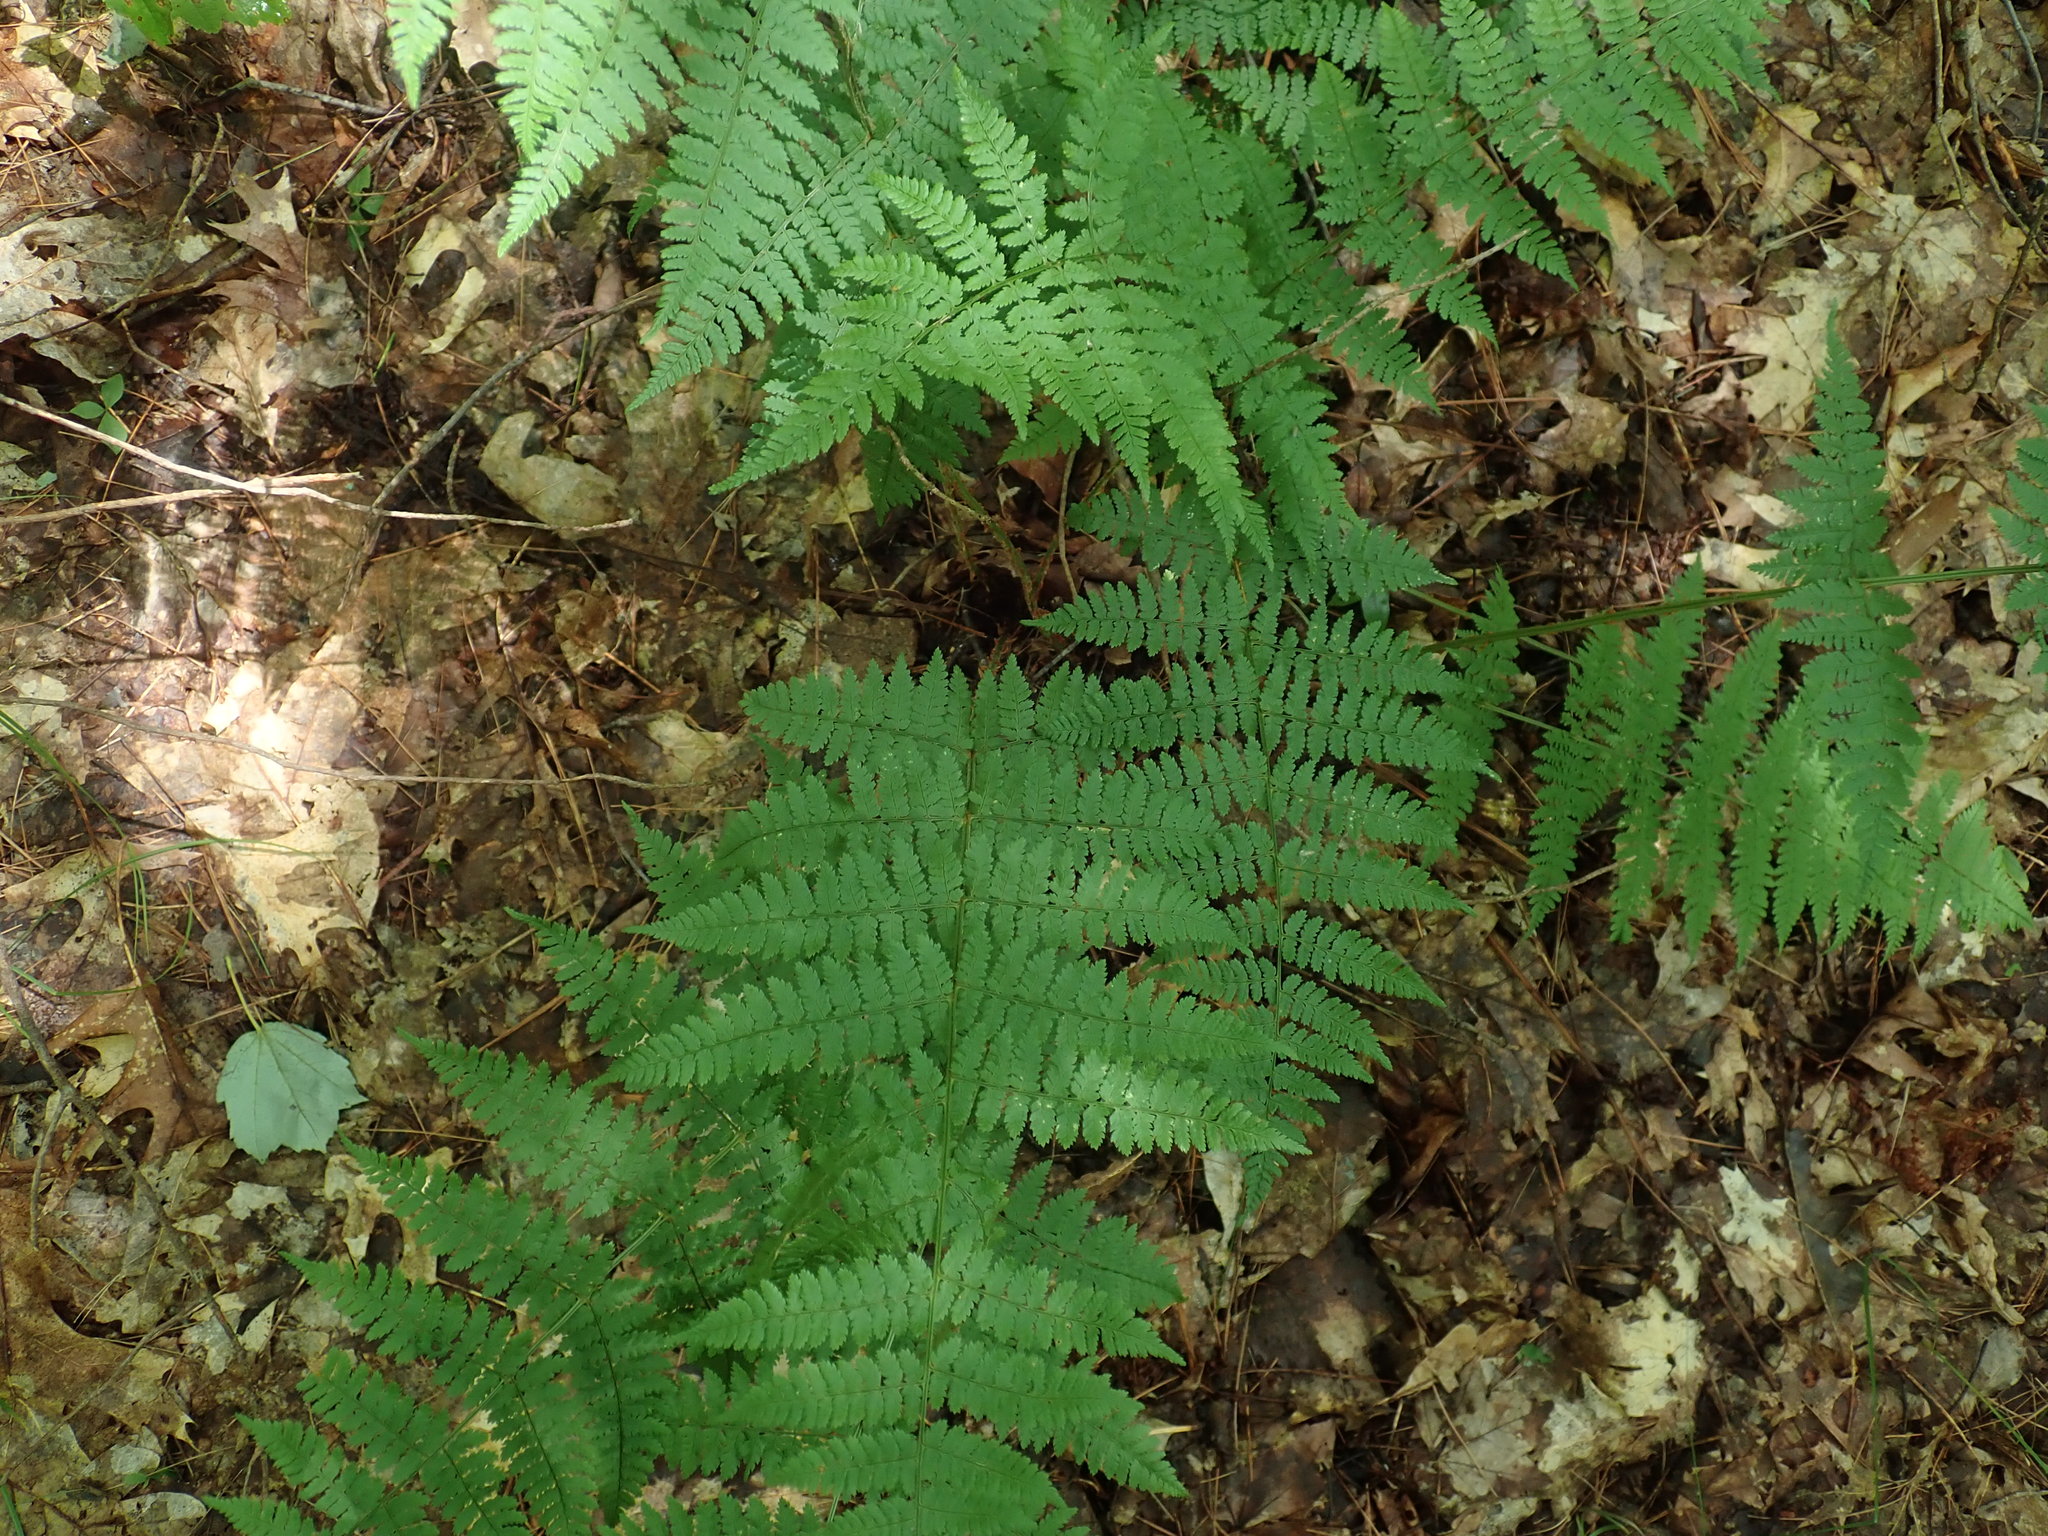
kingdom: Plantae
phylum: Tracheophyta
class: Polypodiopsida
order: Polypodiales
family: Dryopteridaceae
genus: Dryopteris
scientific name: Dryopteris intermedia
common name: Evergreen wood fern
